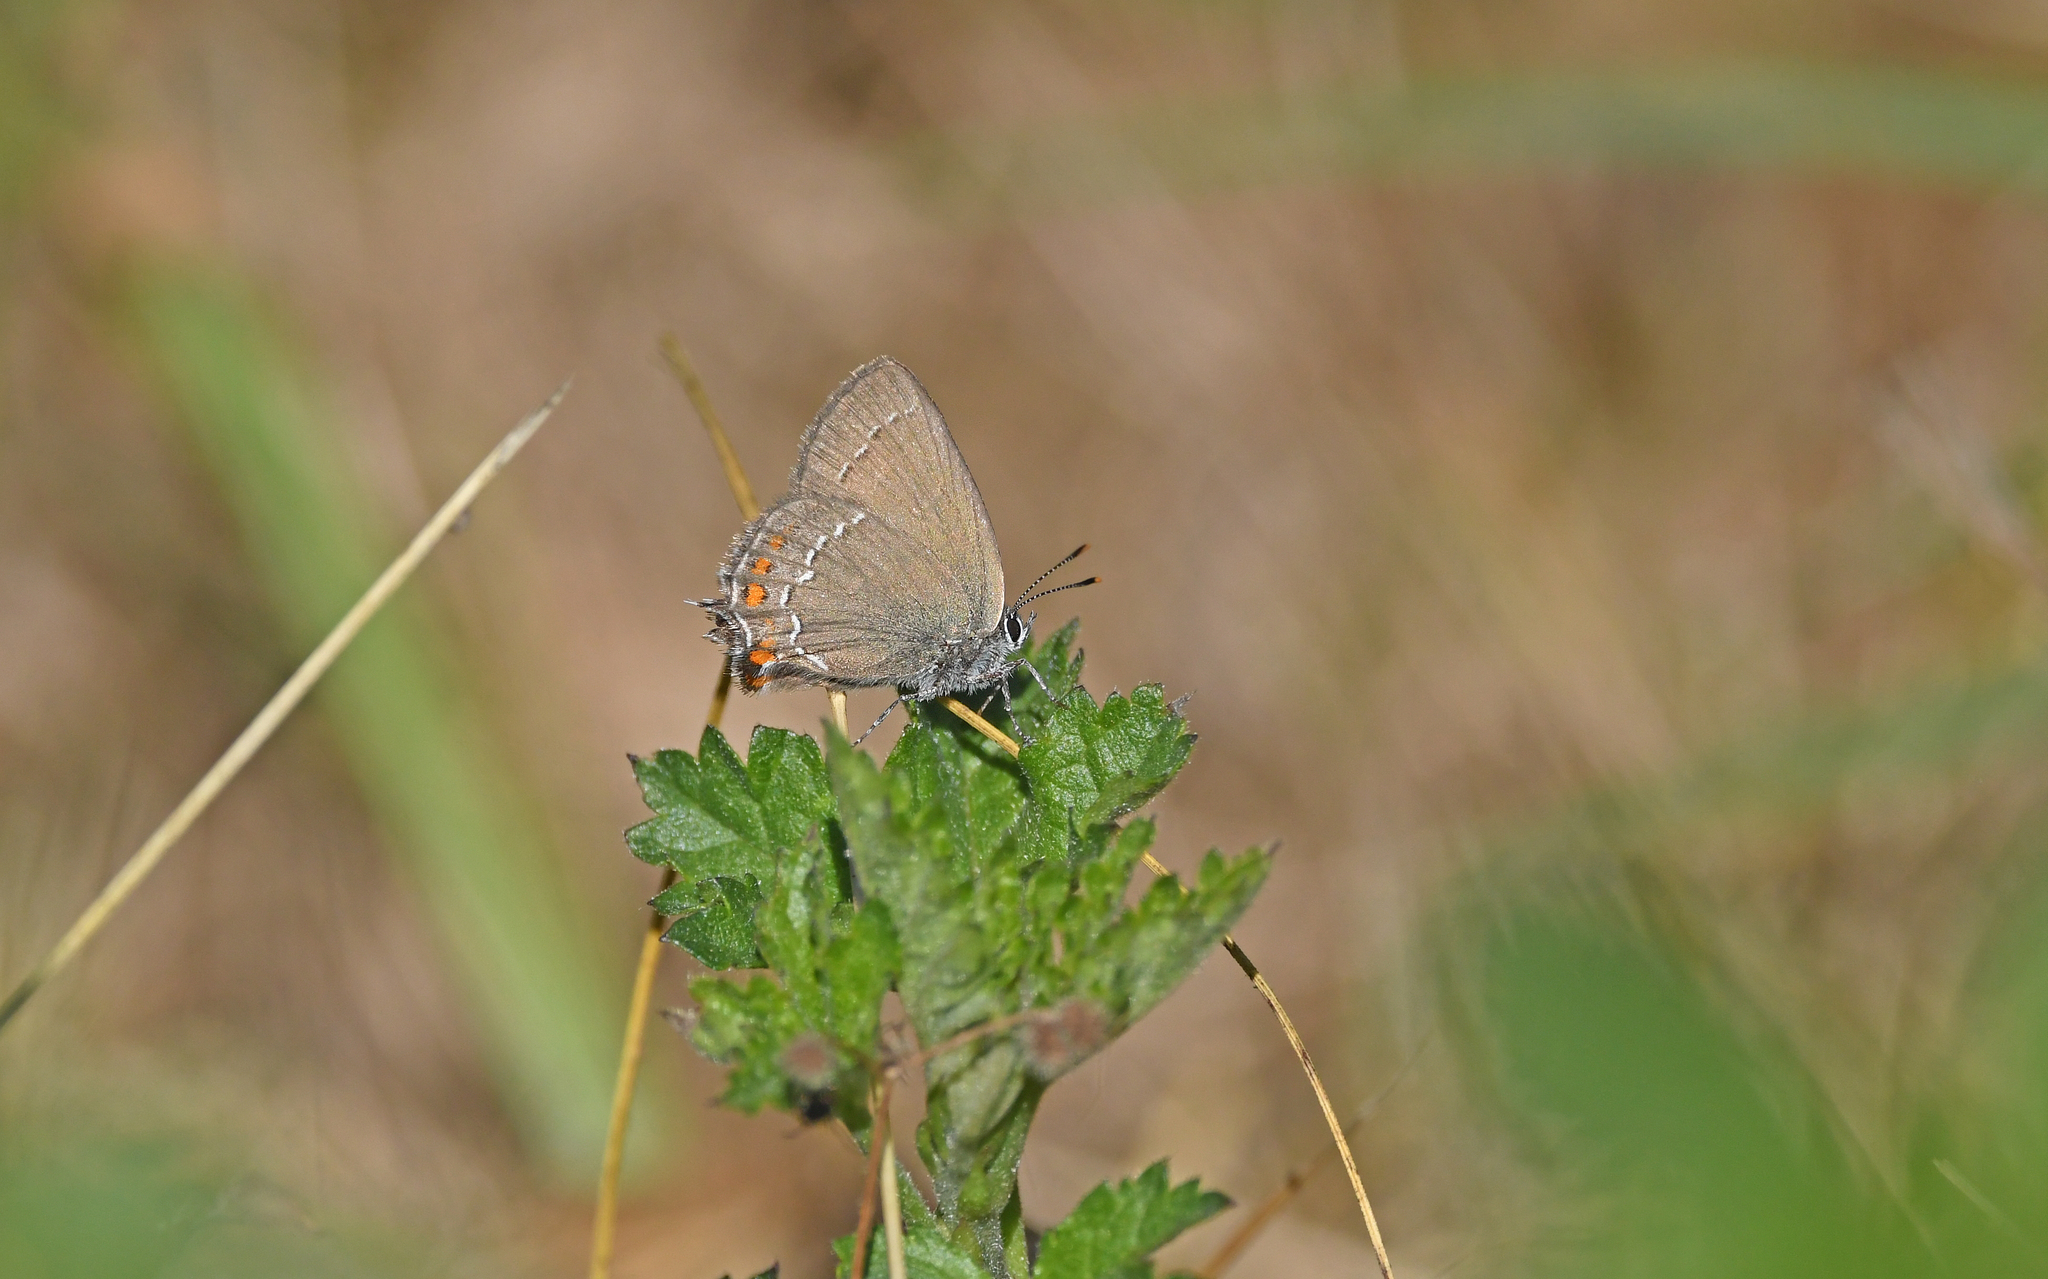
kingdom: Animalia
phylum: Arthropoda
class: Insecta
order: Lepidoptera
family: Lycaenidae
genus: Nordmannia
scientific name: Nordmannia ilicis
